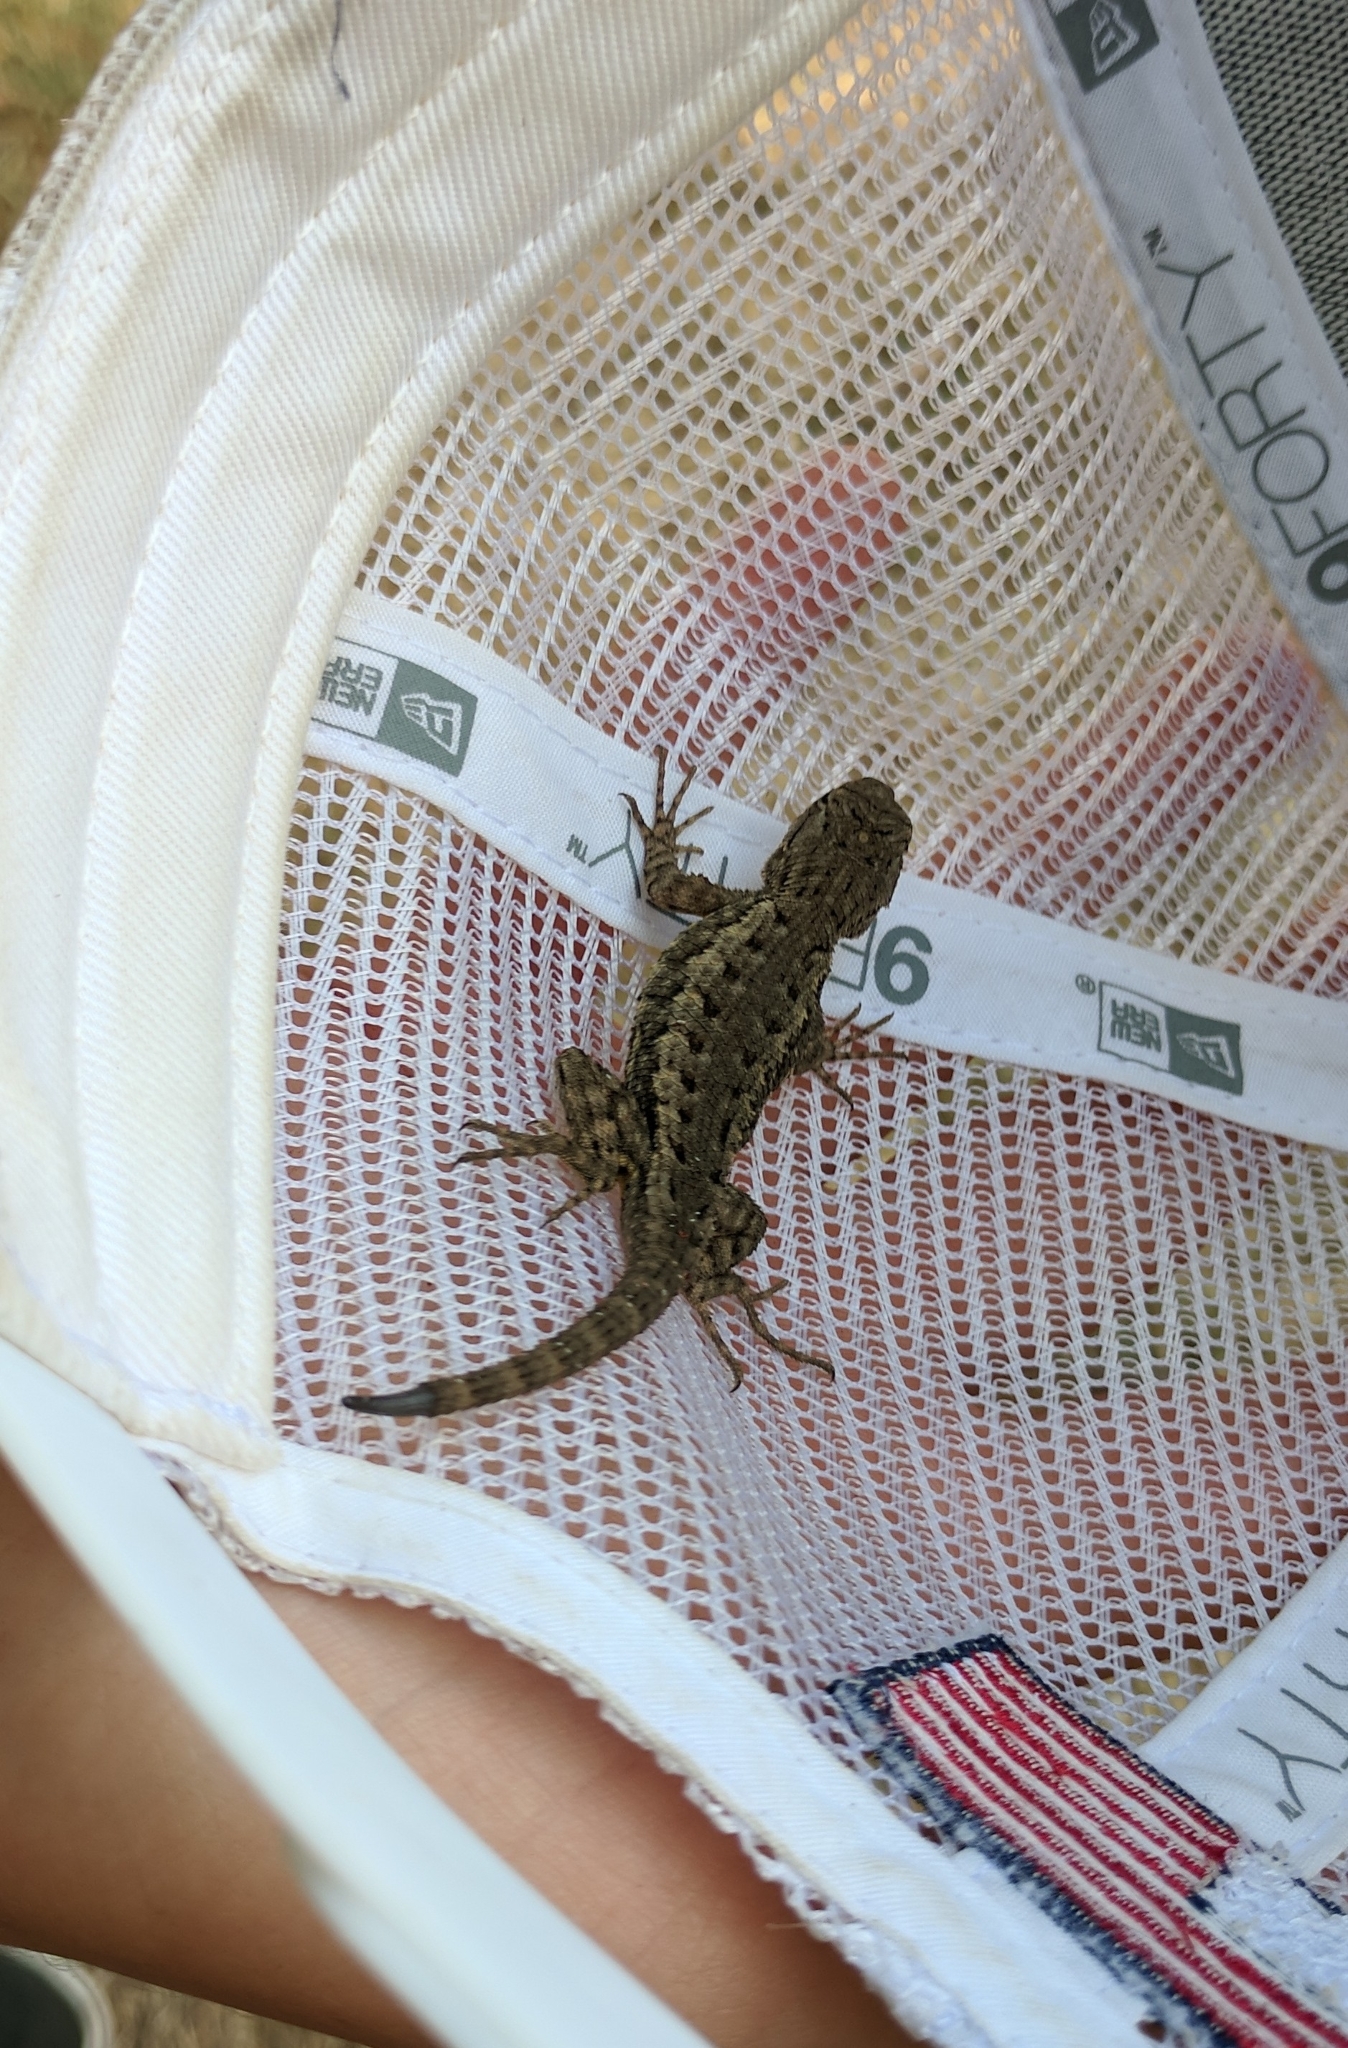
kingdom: Animalia
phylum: Chordata
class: Squamata
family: Phrynosomatidae
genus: Sceloporus
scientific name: Sceloporus occidentalis
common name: Western fence lizard
